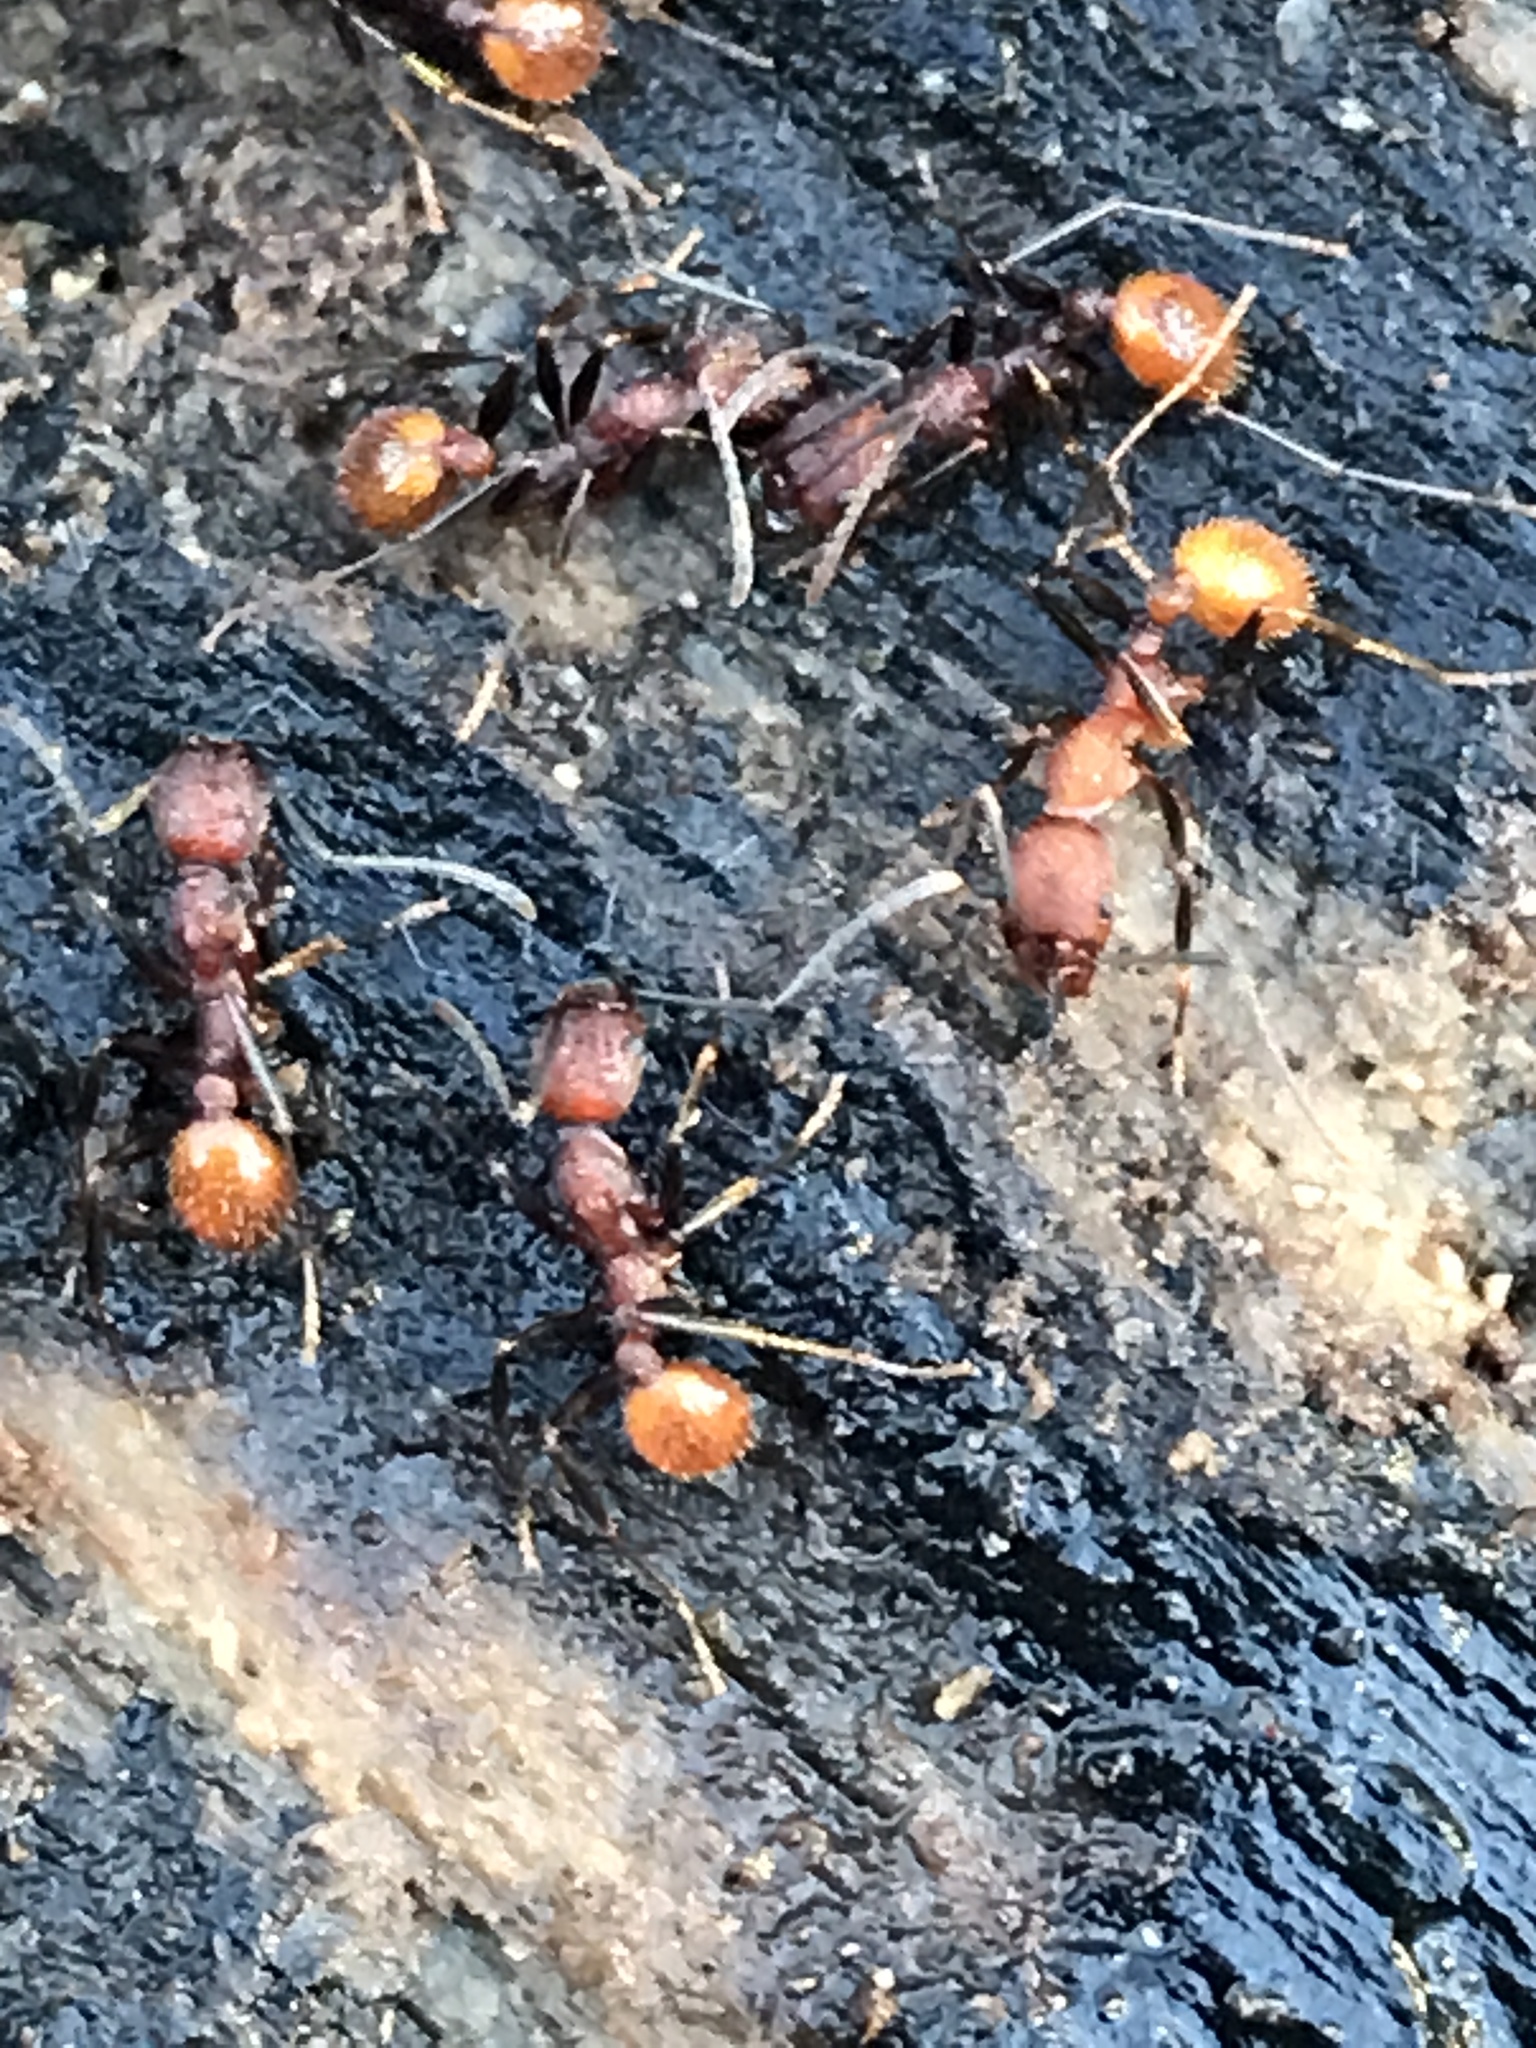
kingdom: Animalia
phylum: Arthropoda
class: Insecta
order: Hymenoptera
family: Formicidae
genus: Aphaenogaster
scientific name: Aphaenogaster lamellidens
